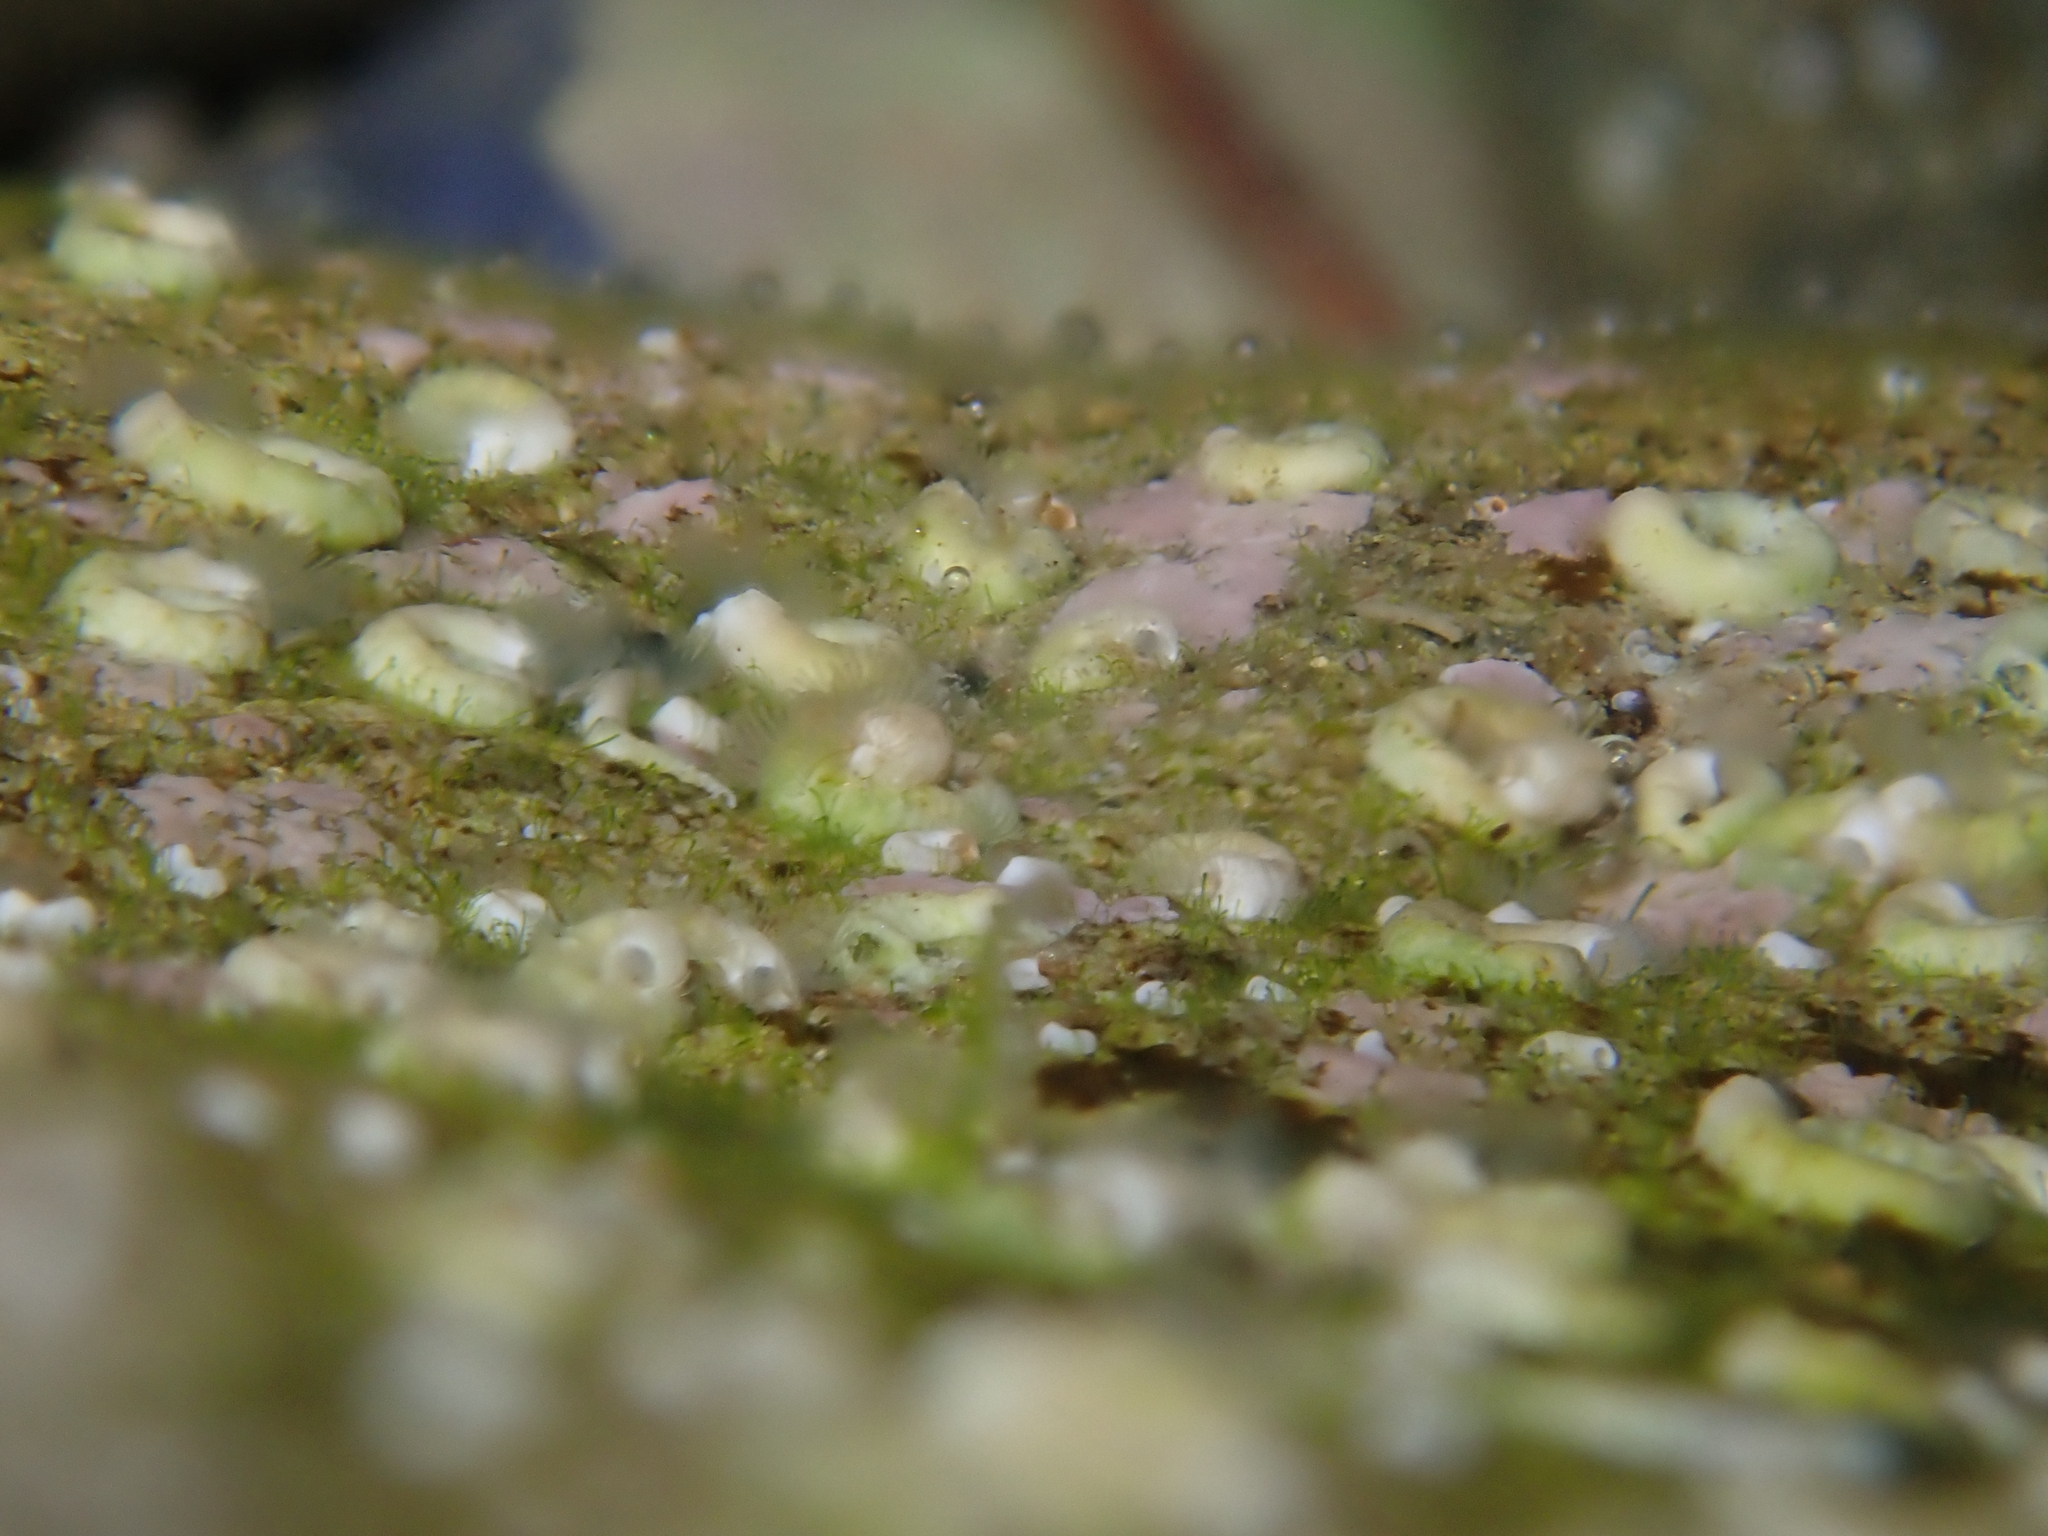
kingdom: Animalia
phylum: Annelida
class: Polychaeta
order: Sabellida
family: Serpulidae
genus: Spirobranchus
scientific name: Spirobranchus cariniferus
